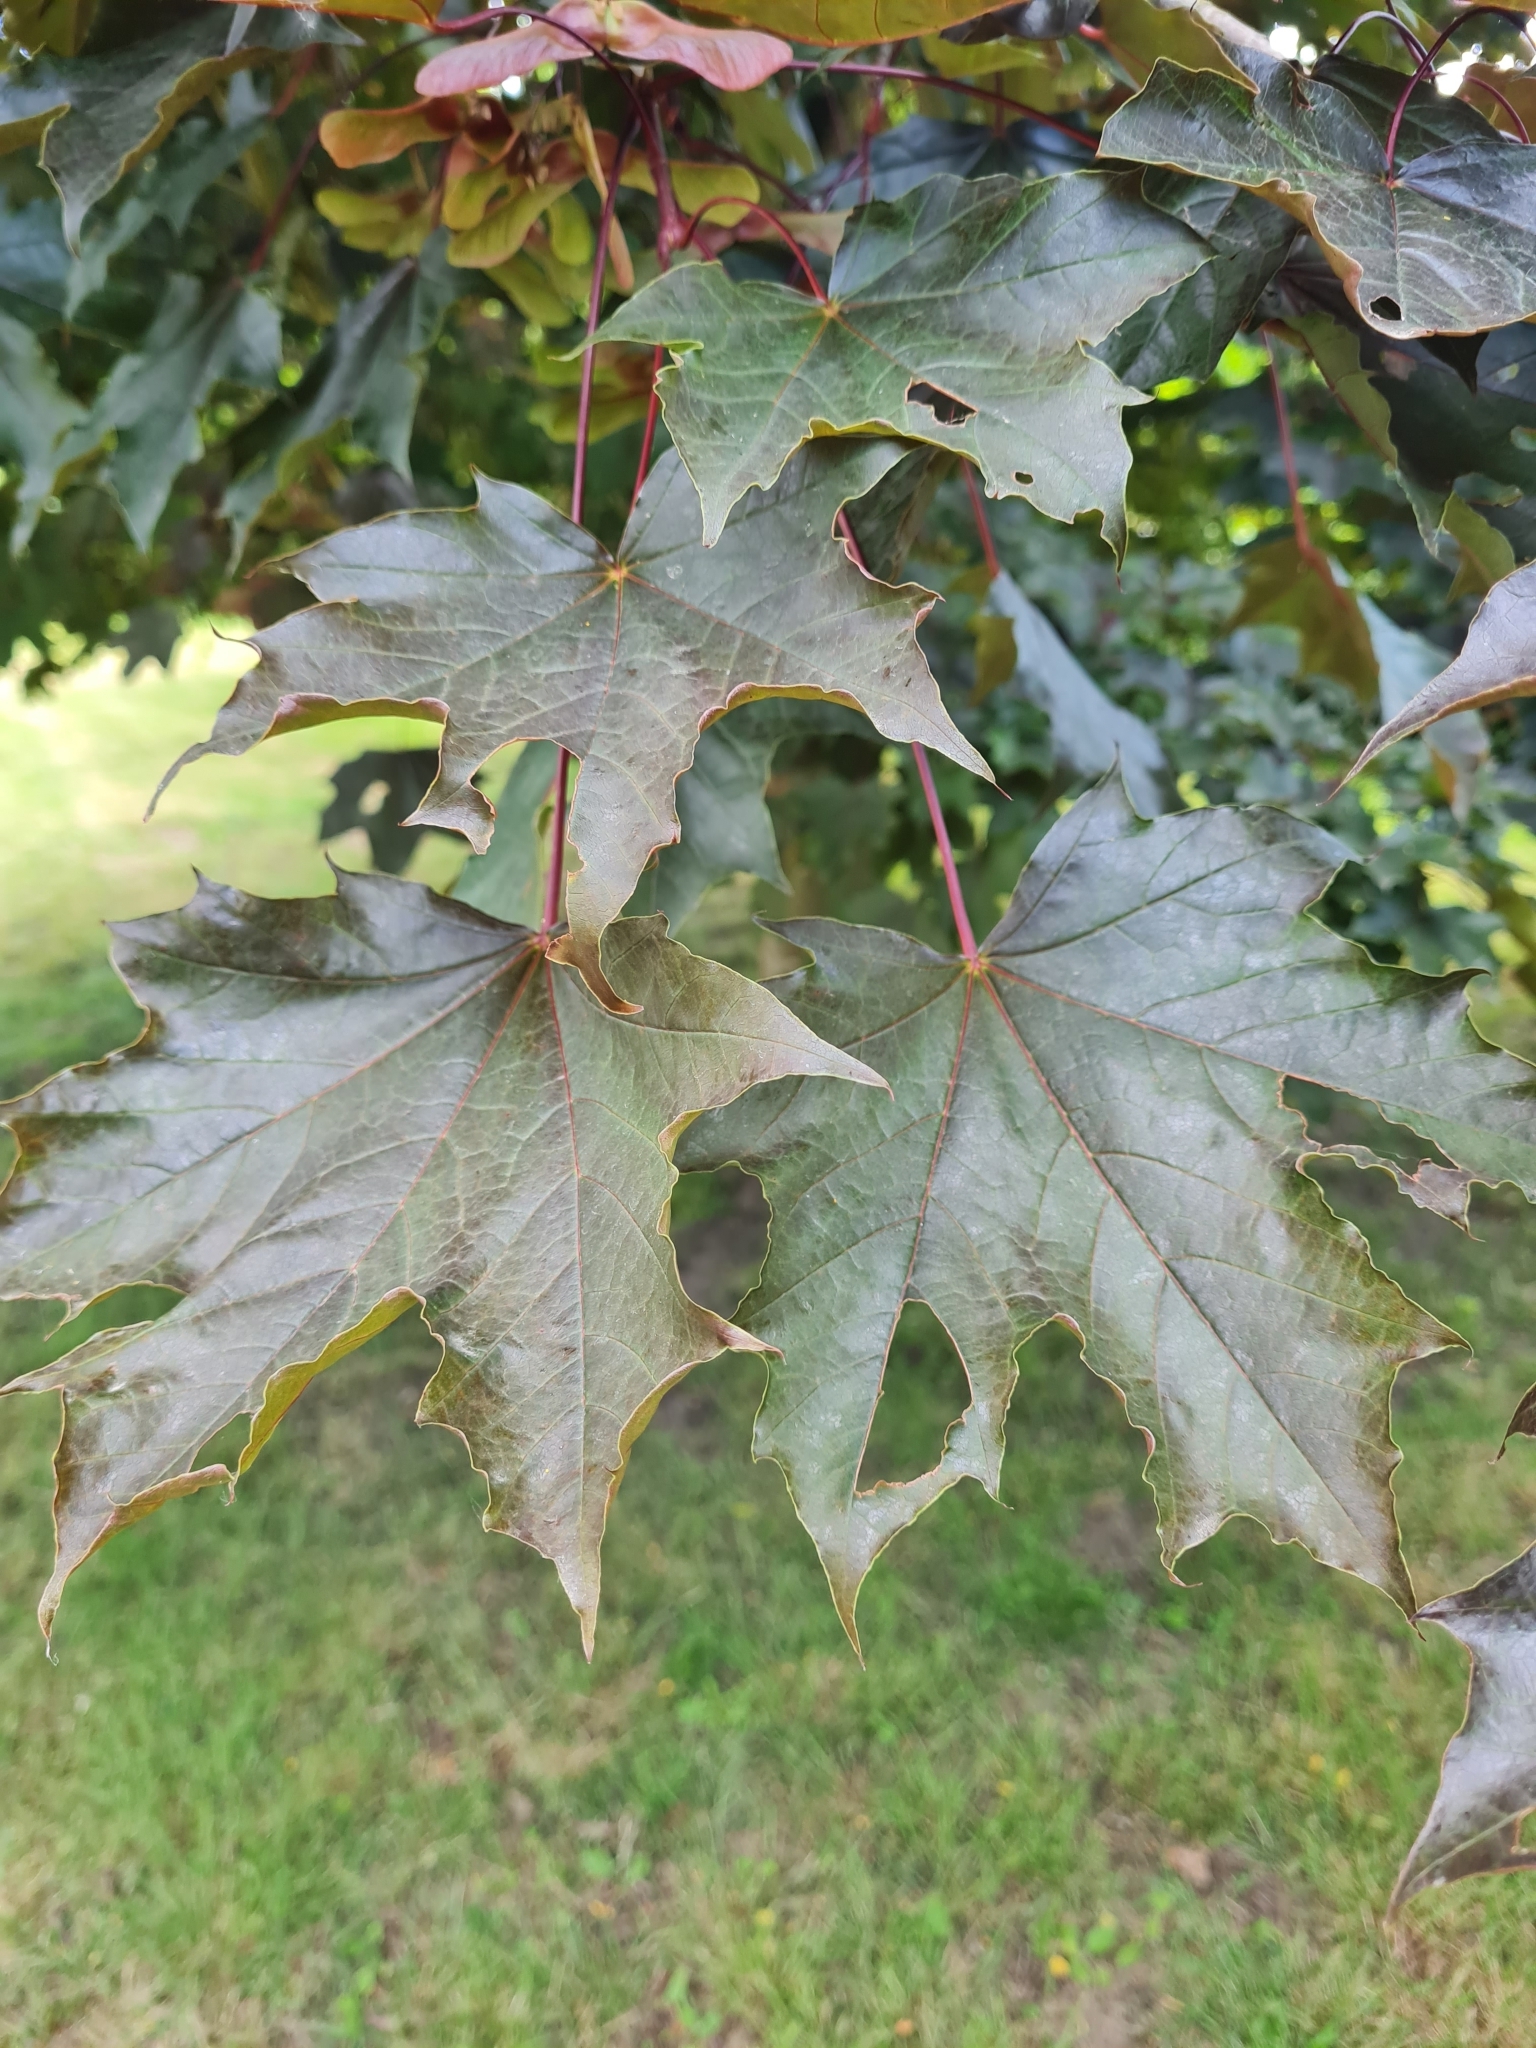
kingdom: Plantae
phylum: Tracheophyta
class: Magnoliopsida
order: Sapindales
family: Sapindaceae
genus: Acer
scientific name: Acer platanoides
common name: Norway maple
